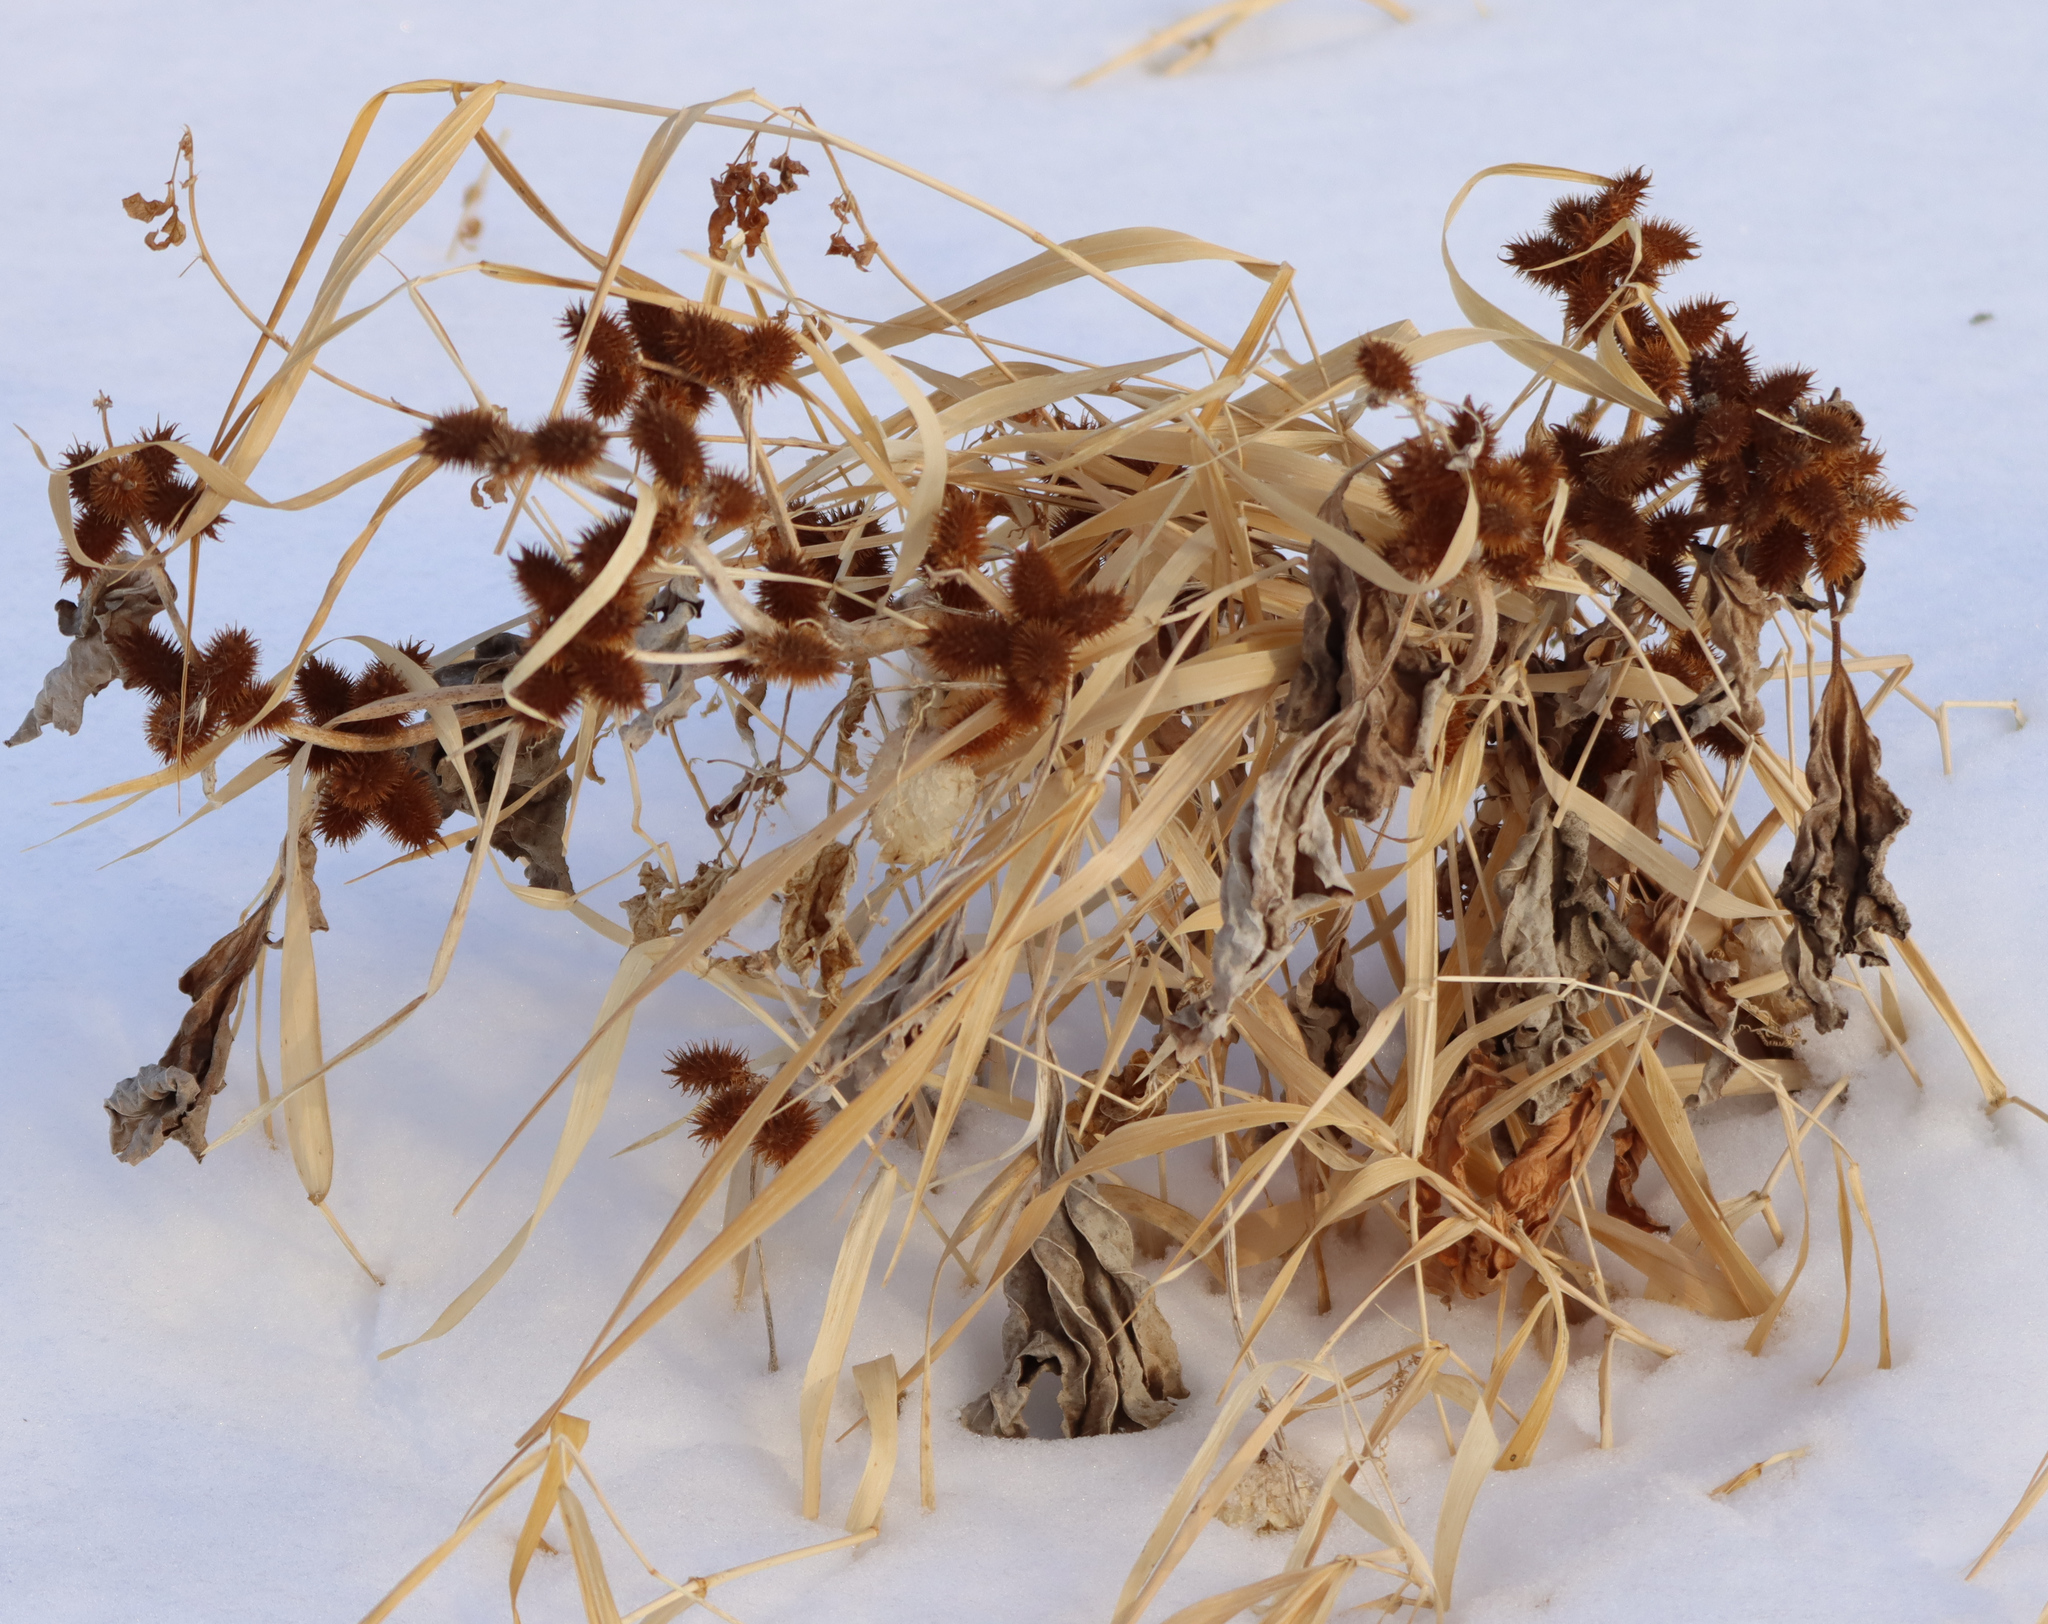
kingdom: Plantae
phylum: Tracheophyta
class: Magnoliopsida
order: Asterales
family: Asteraceae
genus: Xanthium
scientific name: Xanthium strumarium
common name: Rough cocklebur
